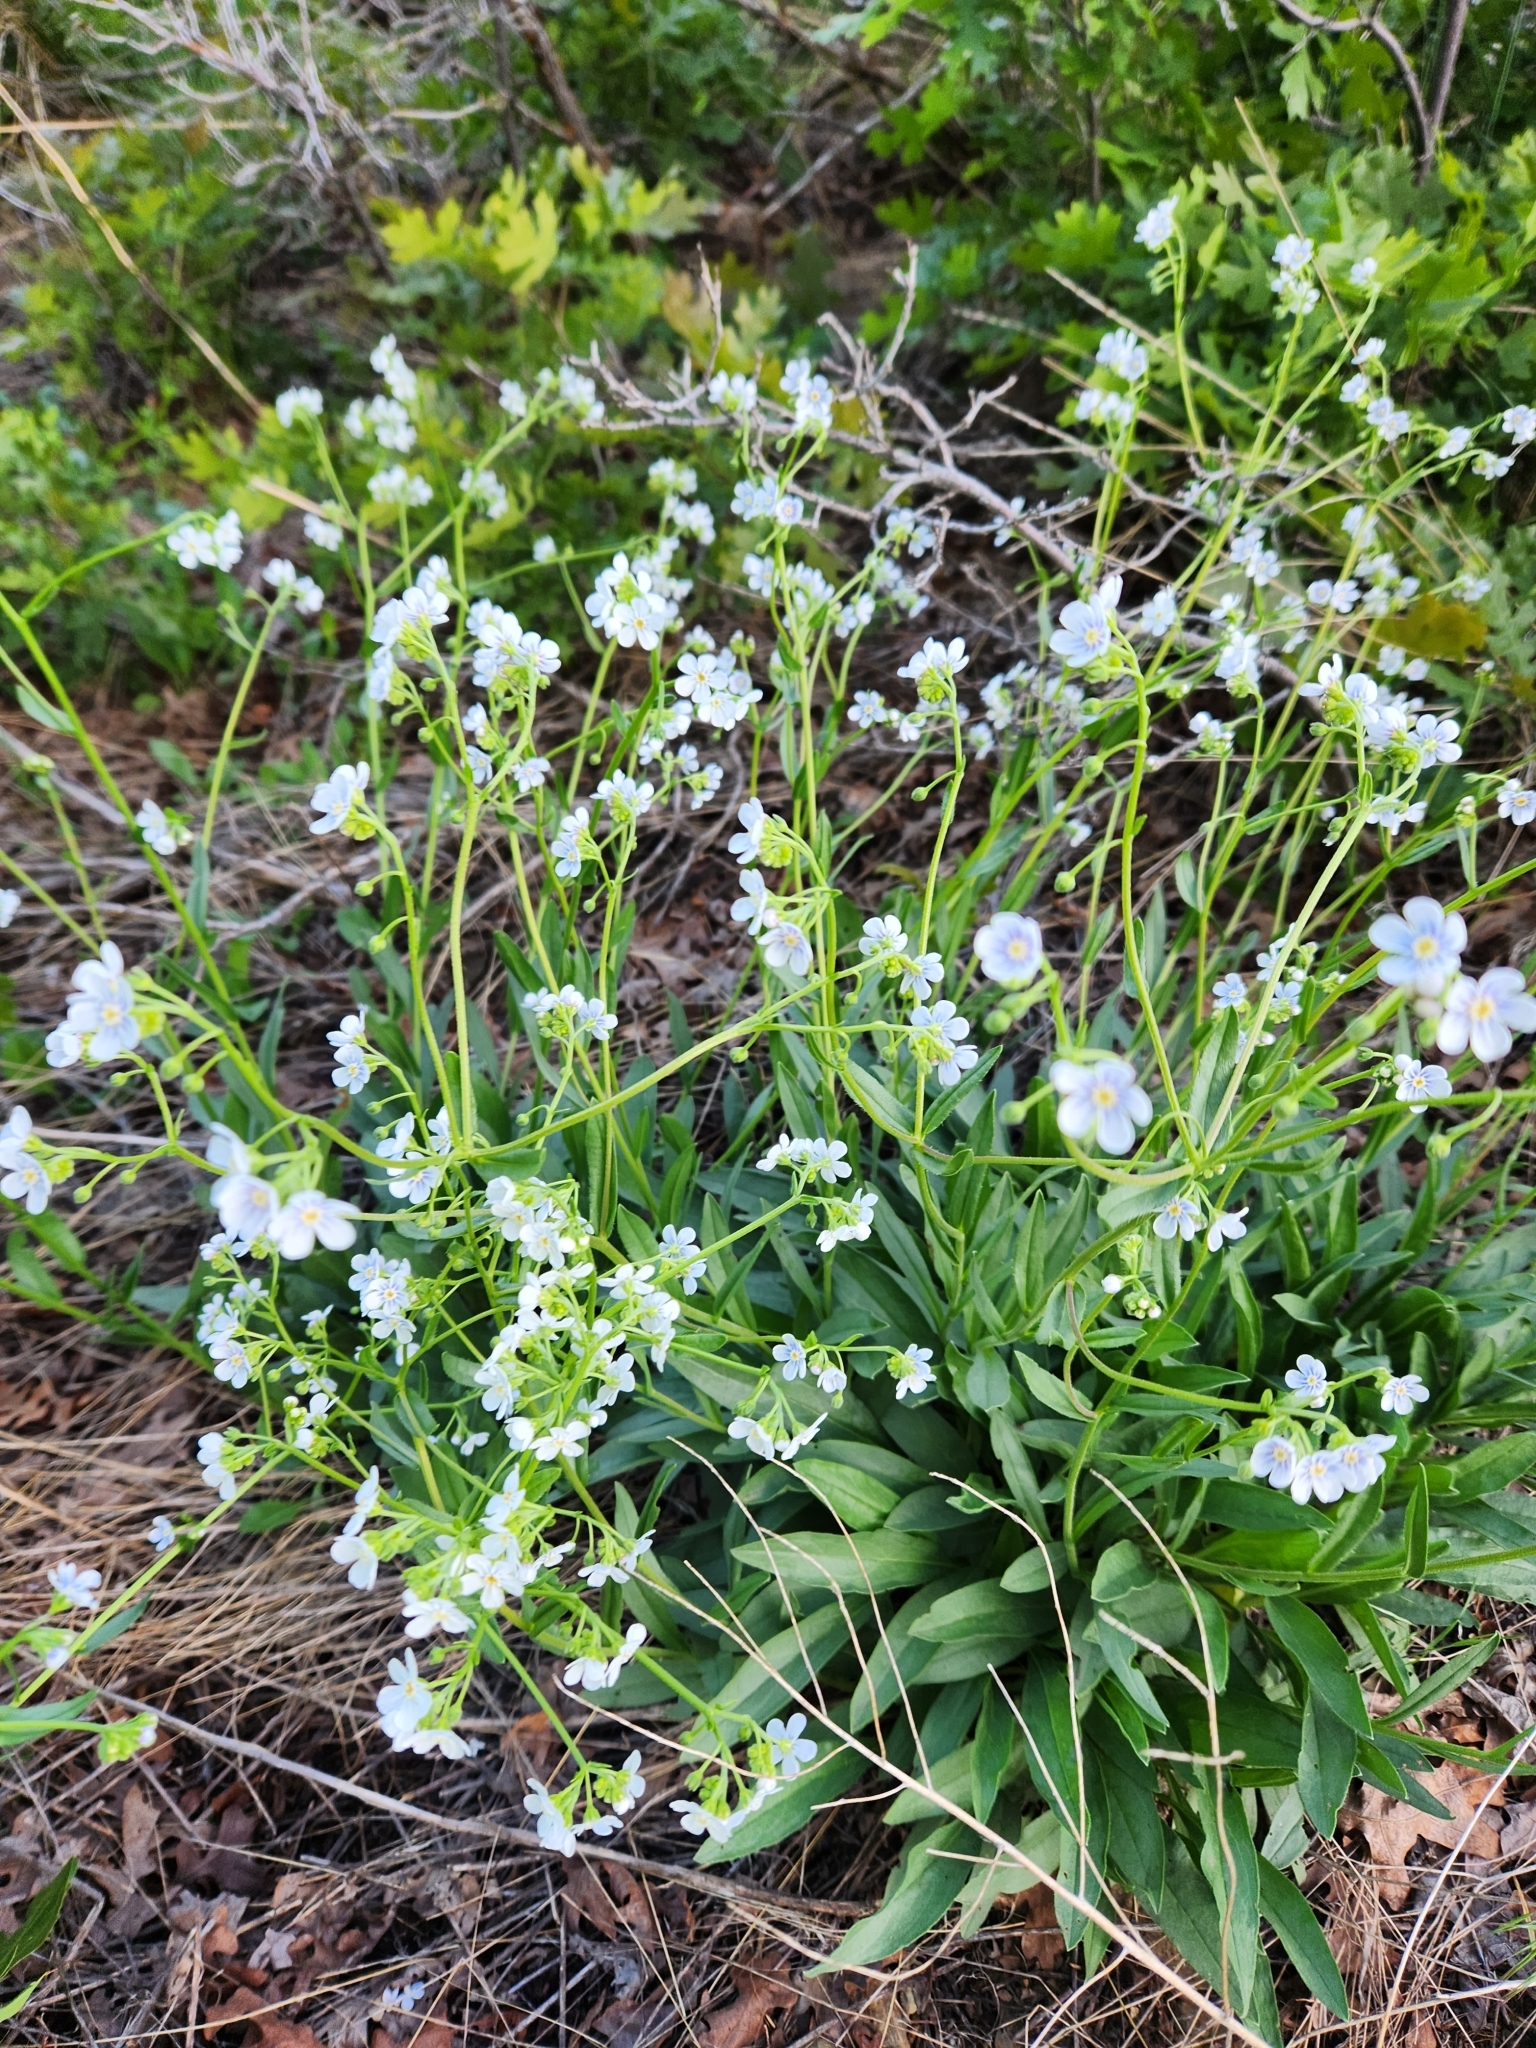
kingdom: Plantae
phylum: Tracheophyta
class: Magnoliopsida
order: Boraginales
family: Boraginaceae
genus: Hackelia
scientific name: Hackelia patens
